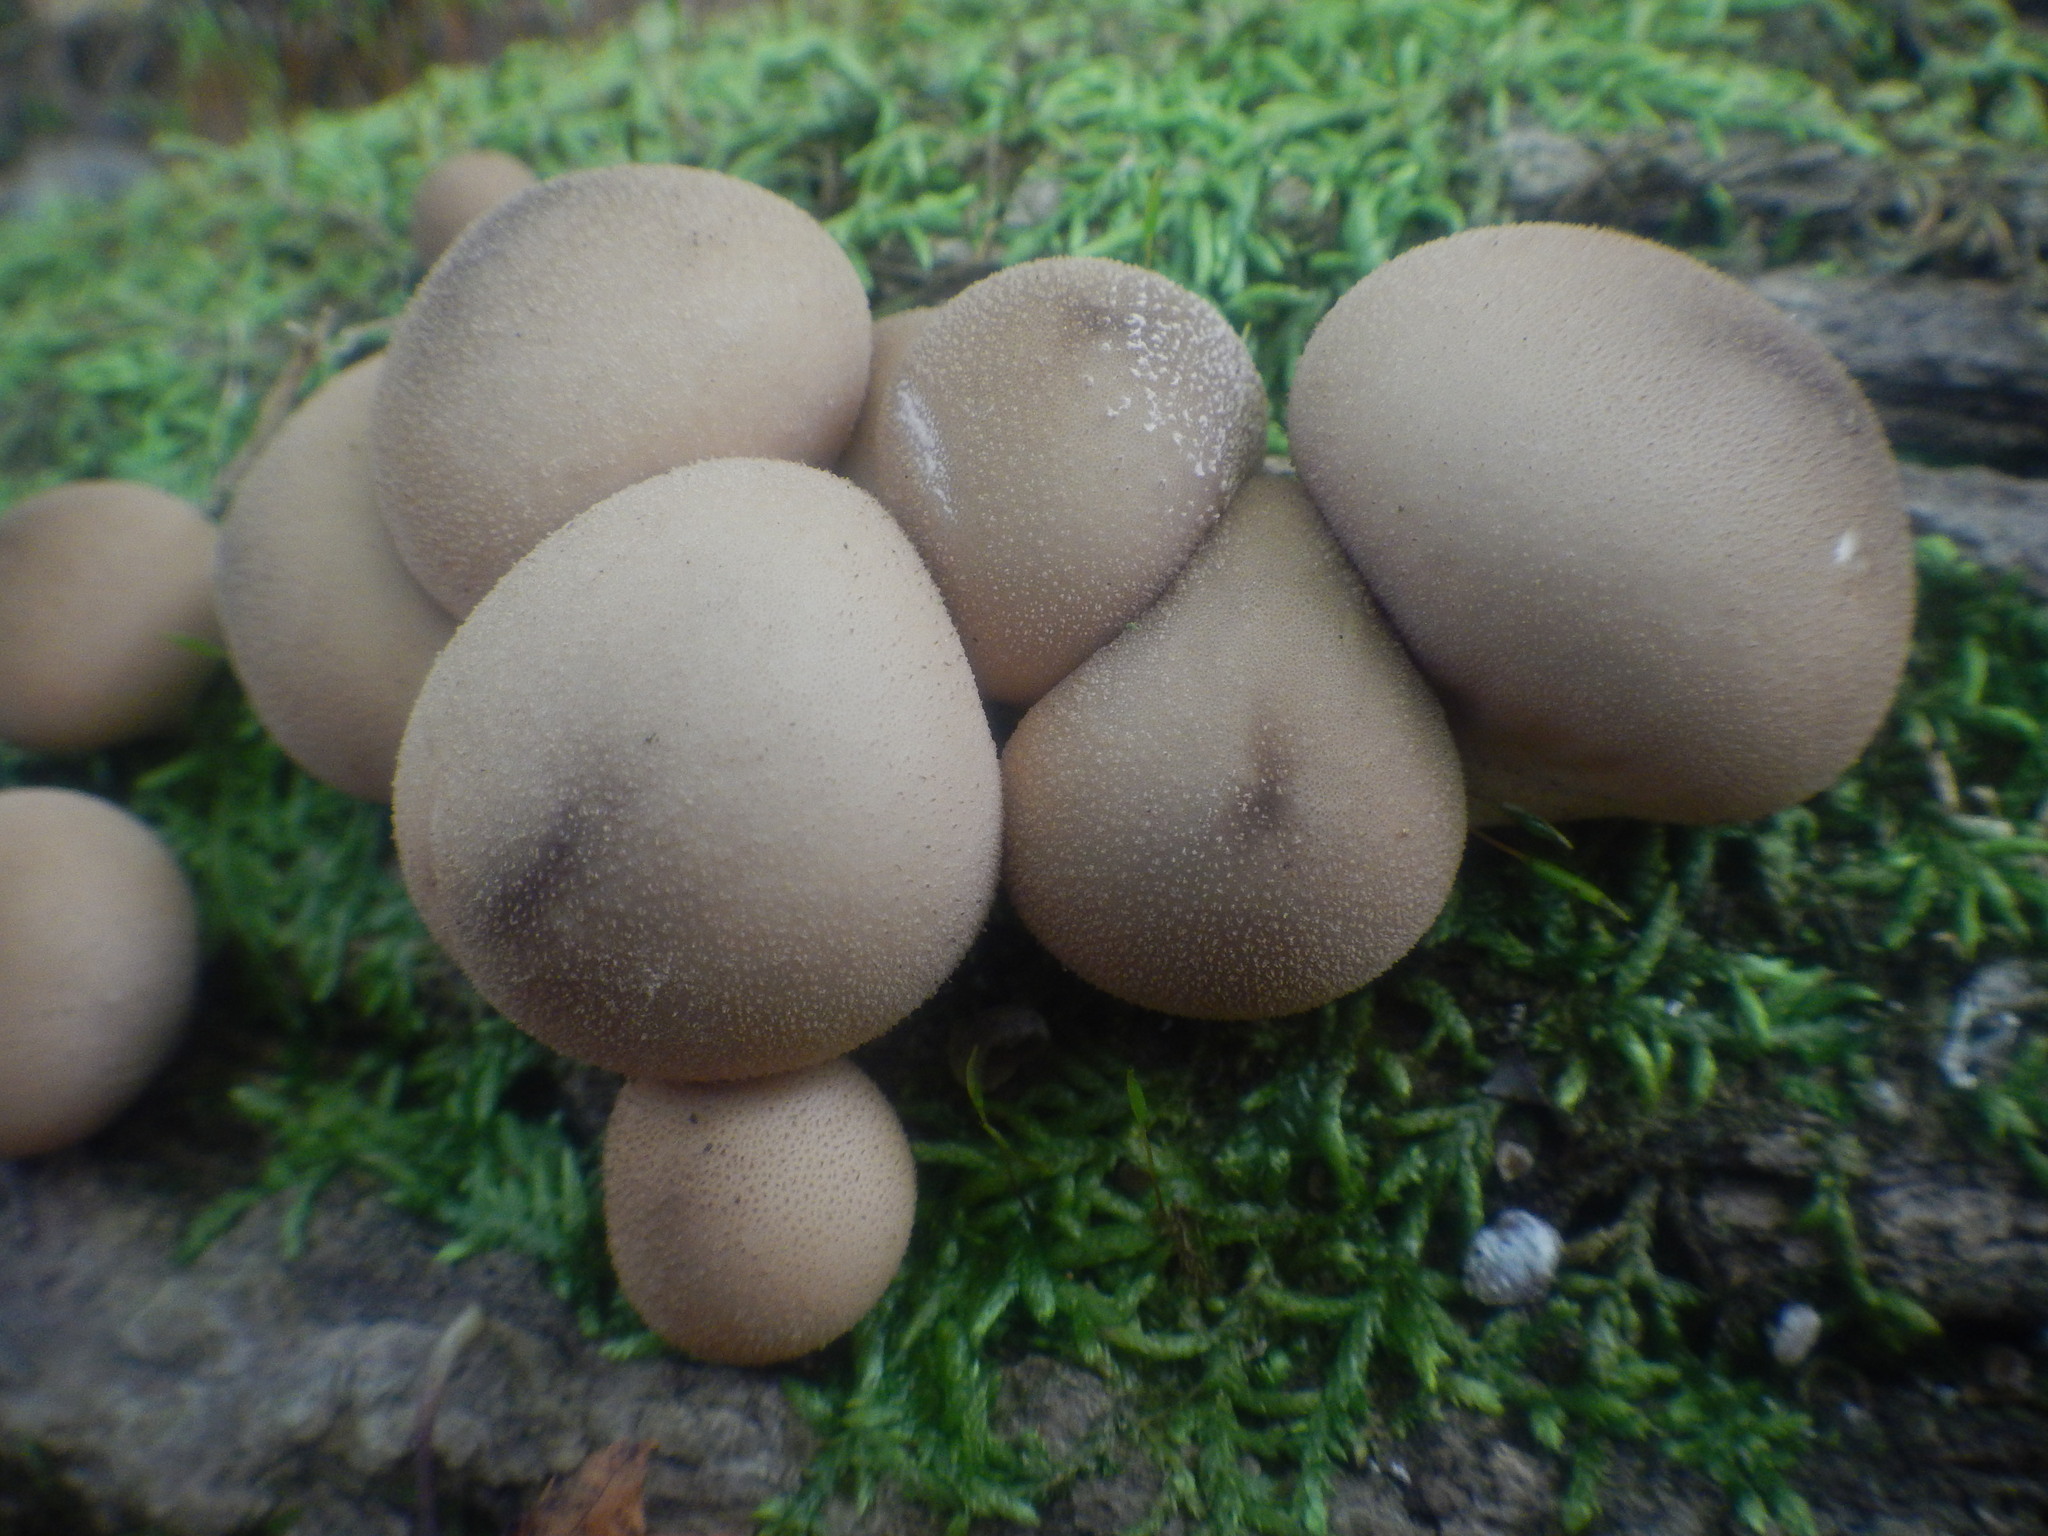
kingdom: Fungi
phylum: Basidiomycota
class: Agaricomycetes
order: Agaricales
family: Lycoperdaceae
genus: Apioperdon
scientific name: Apioperdon pyriforme
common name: Pear-shaped puffball
